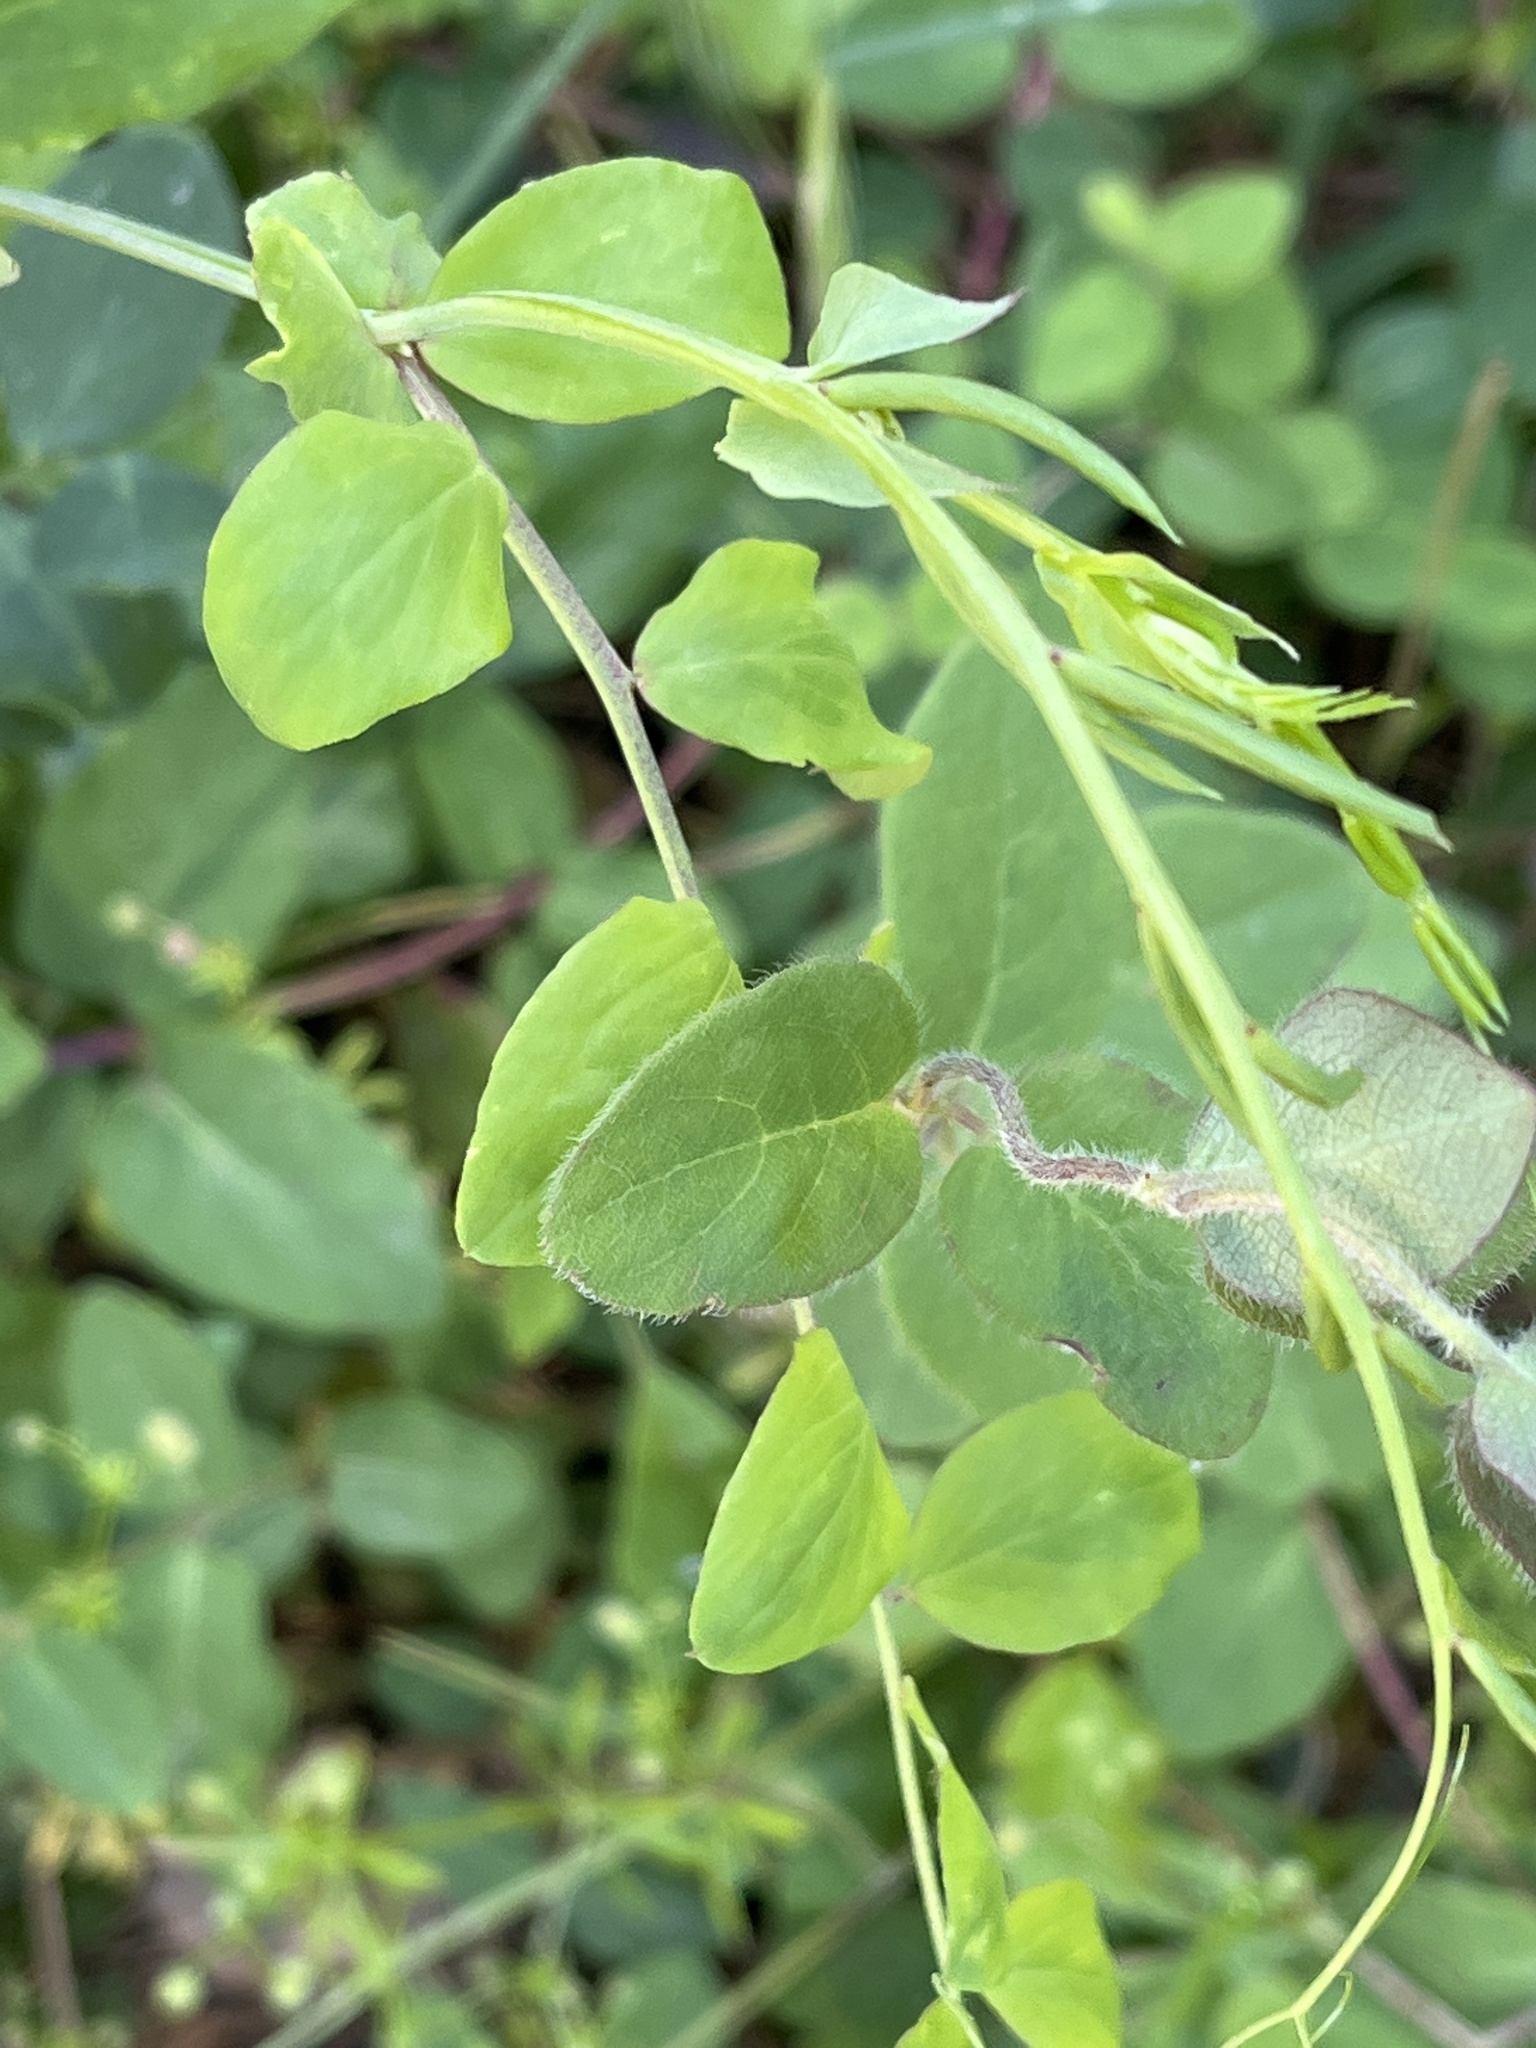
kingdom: Plantae
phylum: Tracheophyta
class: Magnoliopsida
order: Fabales
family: Fabaceae
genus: Lathyrus
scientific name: Lathyrus sulphureus
